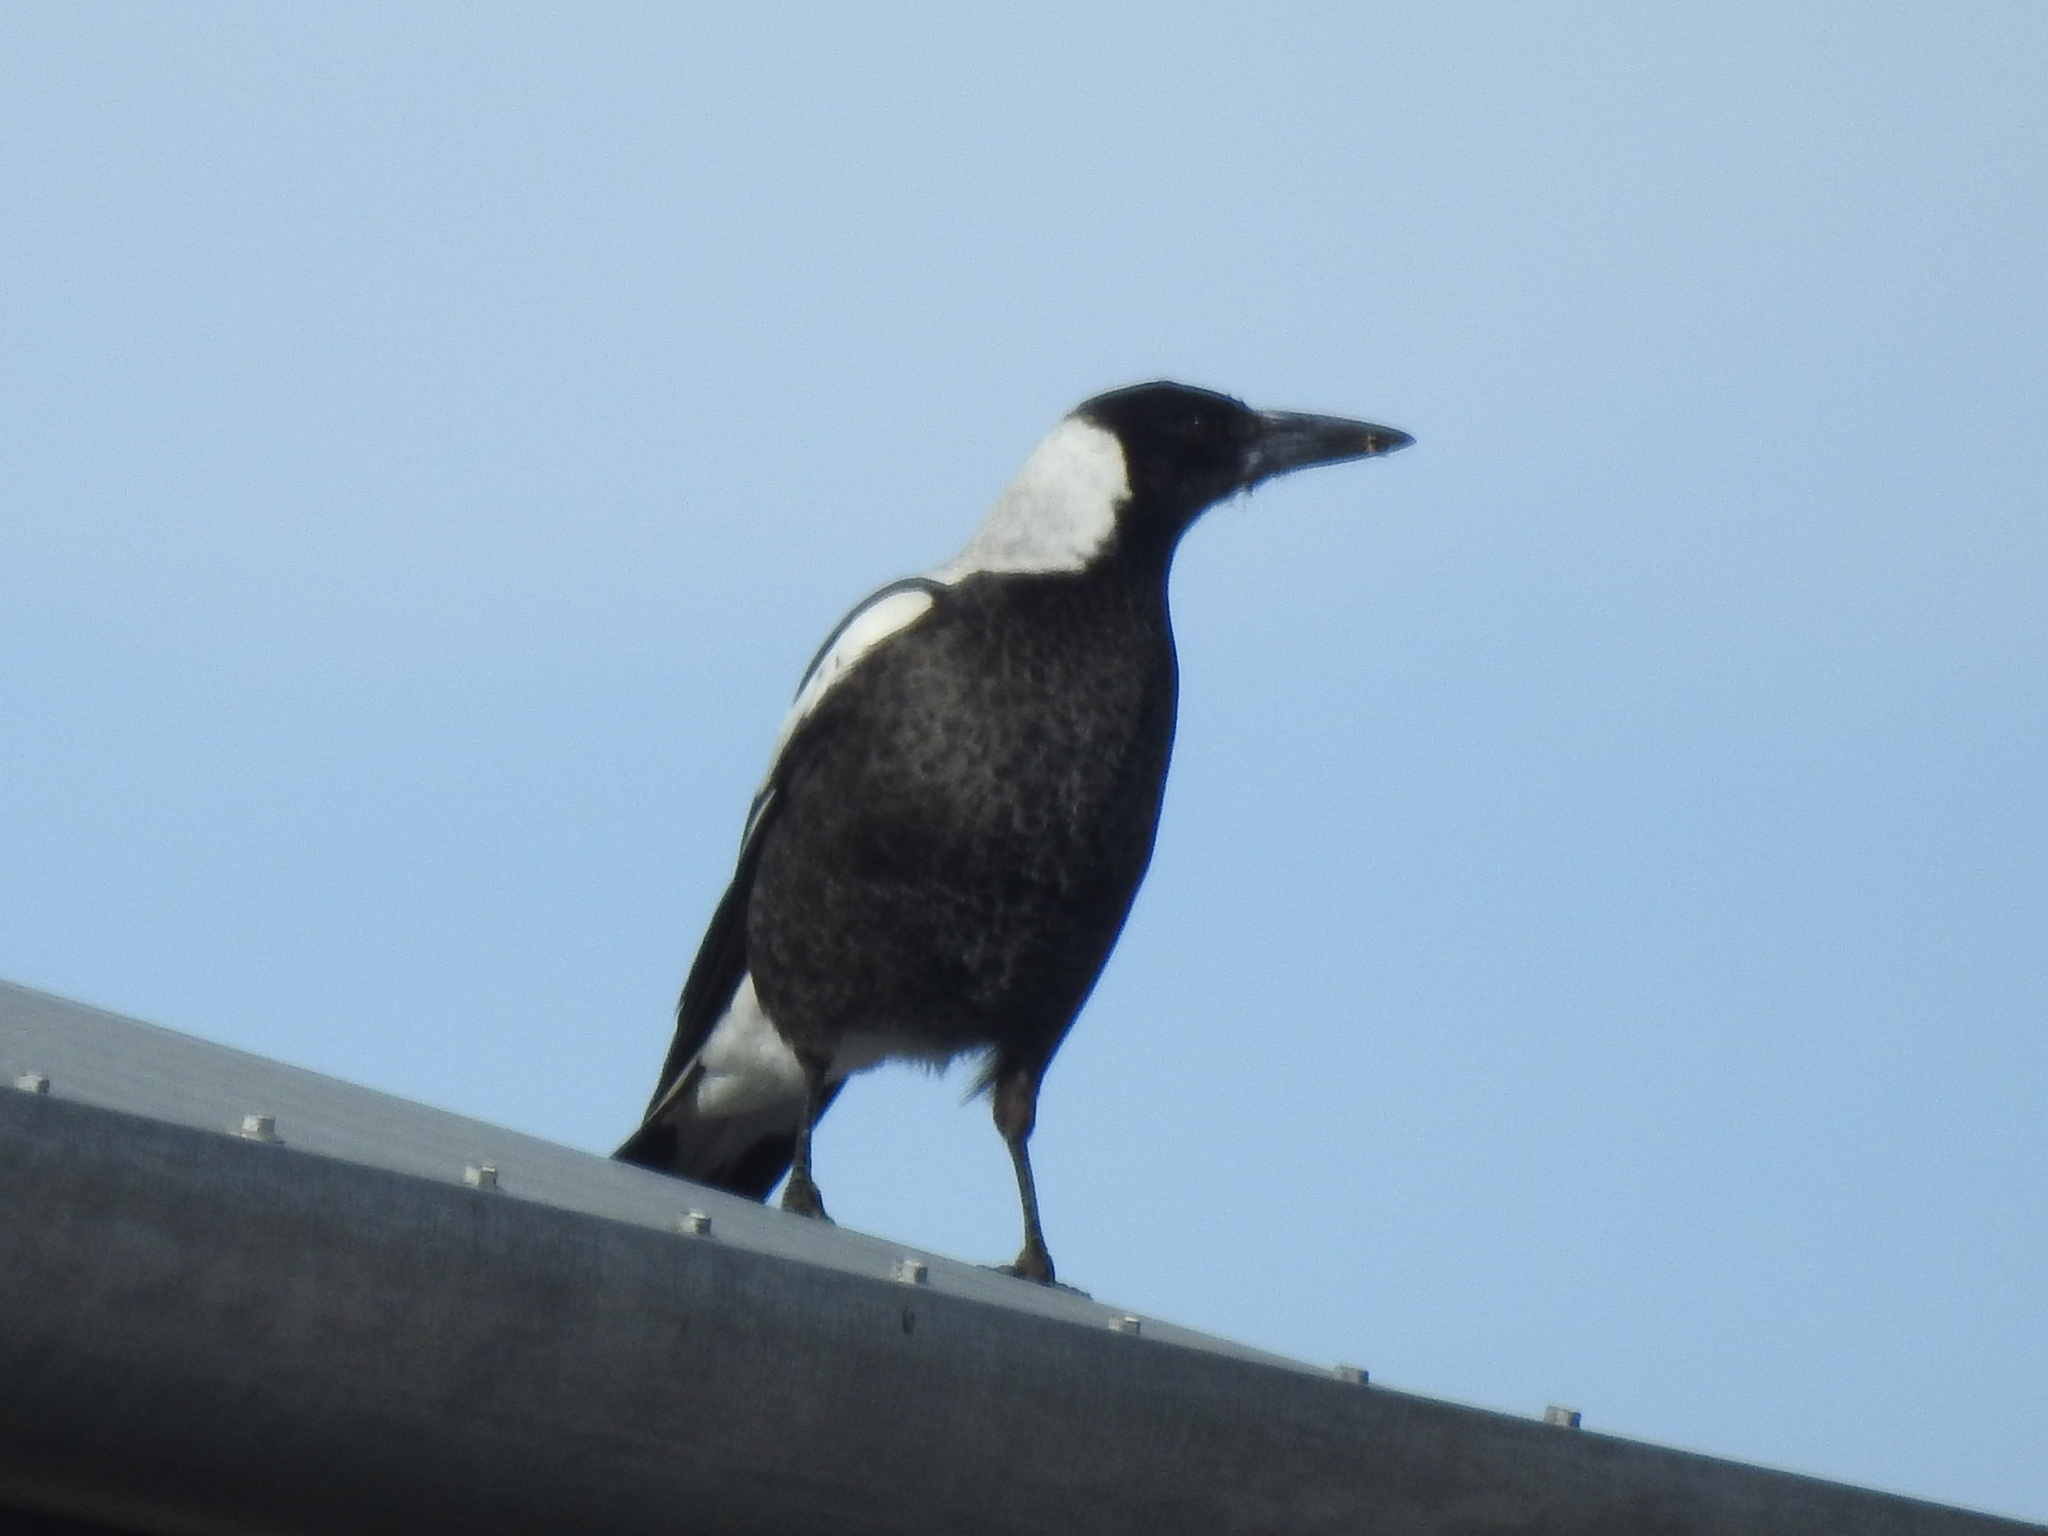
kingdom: Animalia
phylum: Chordata
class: Aves
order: Passeriformes
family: Cracticidae
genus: Gymnorhina
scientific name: Gymnorhina tibicen
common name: Australian magpie
